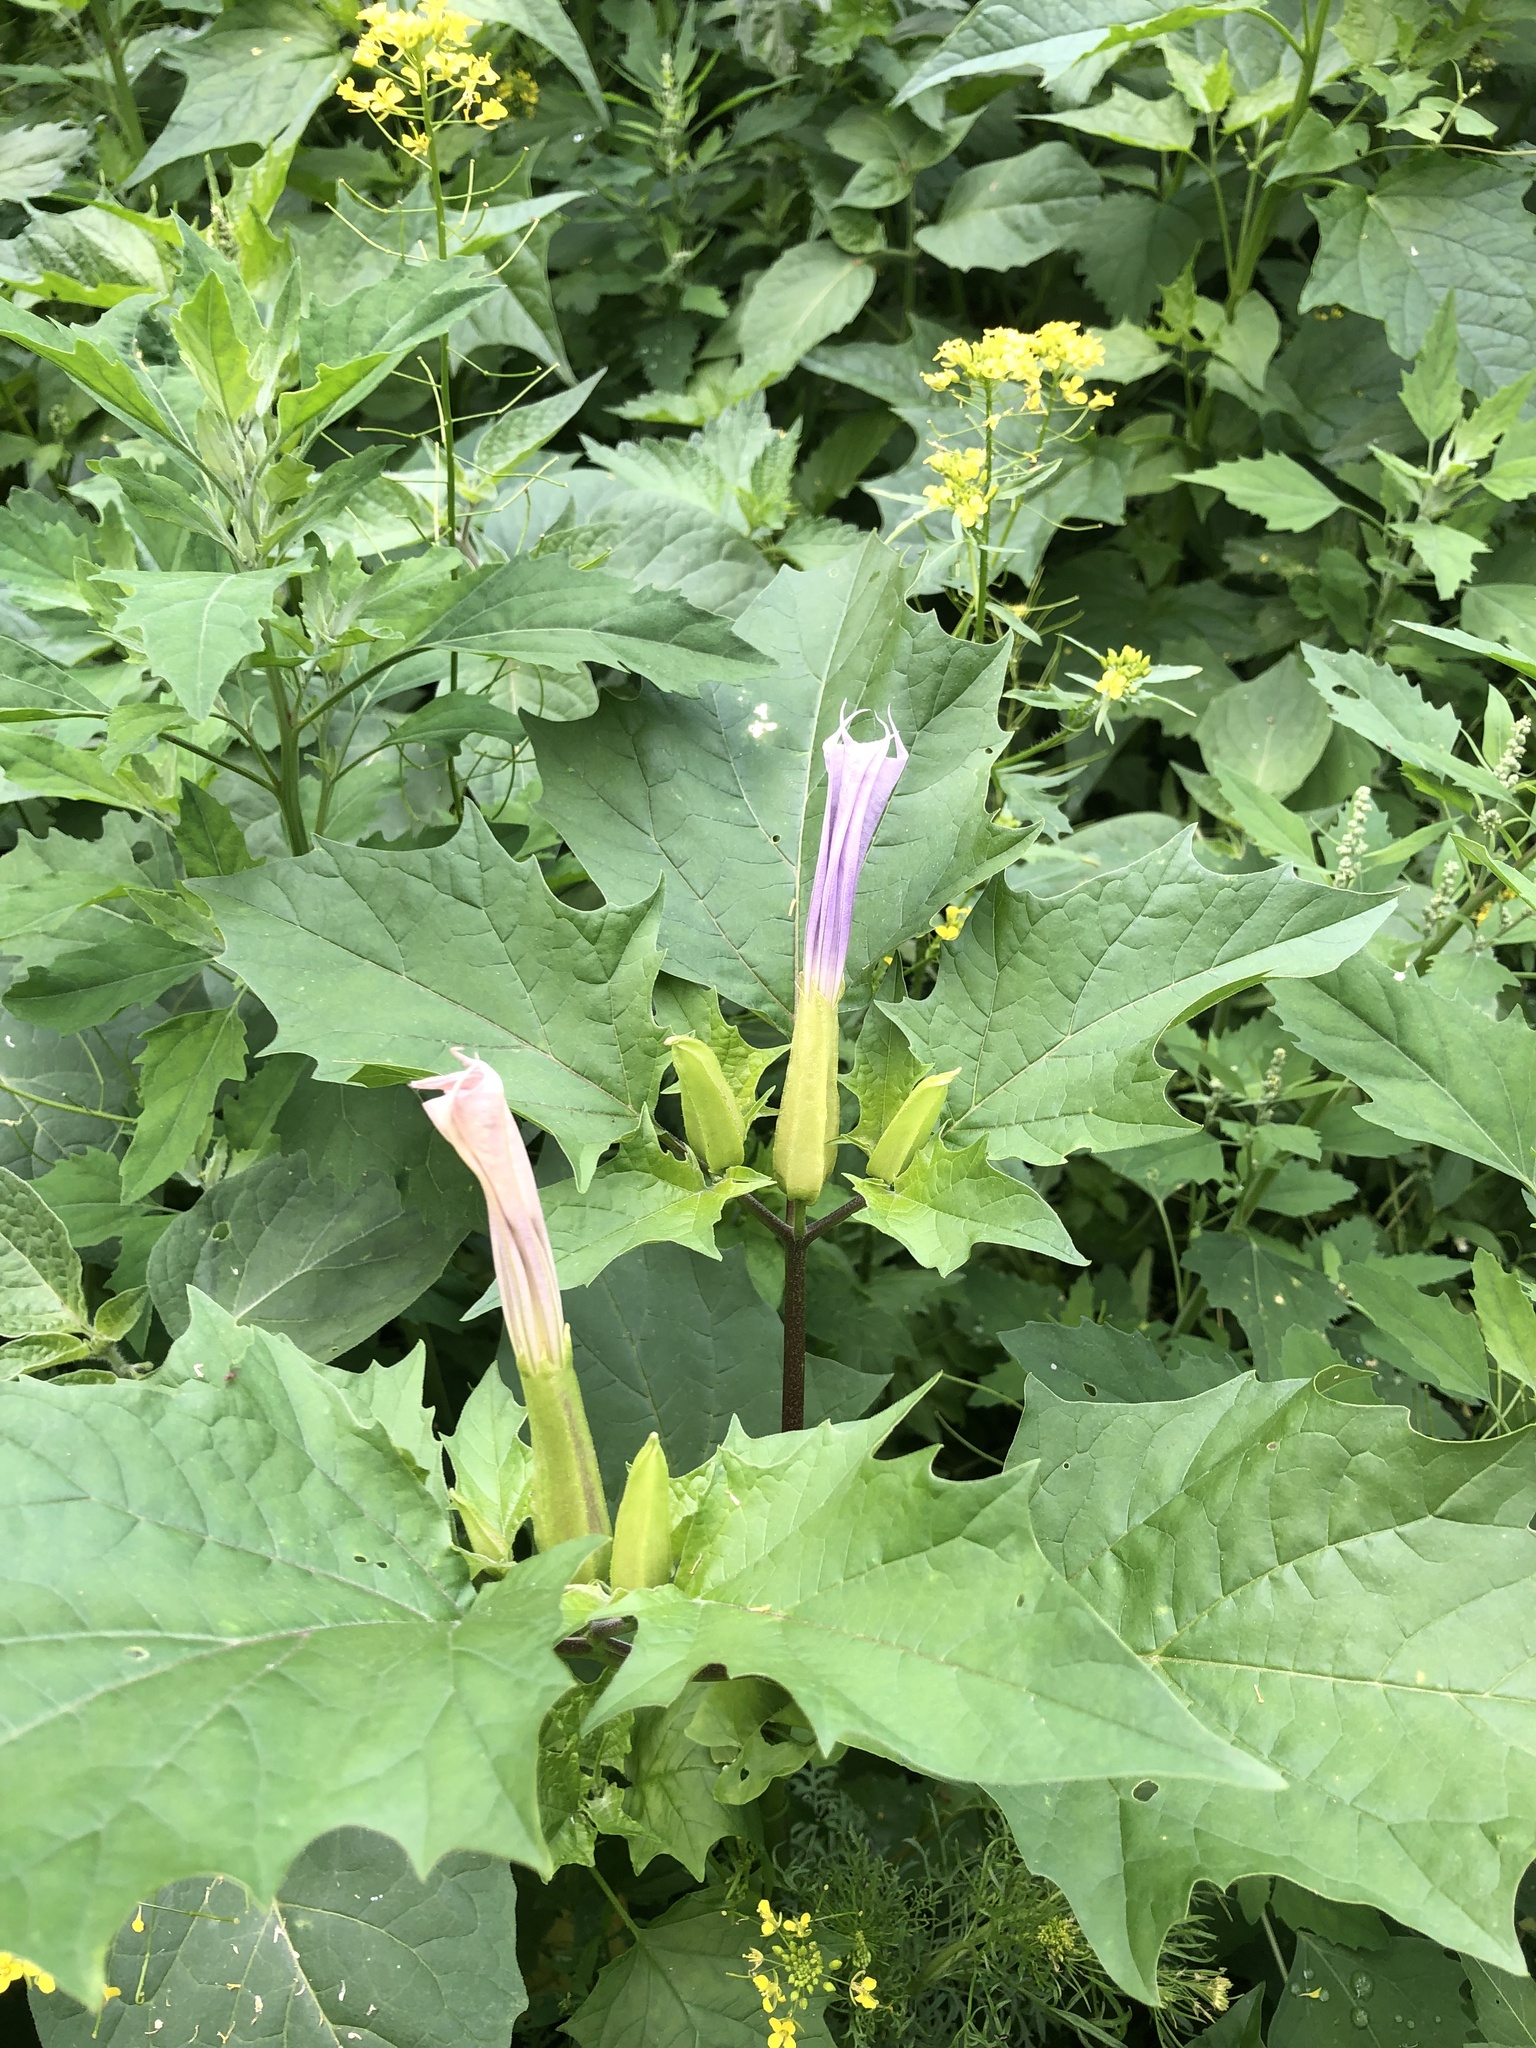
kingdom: Plantae
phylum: Tracheophyta
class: Magnoliopsida
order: Solanales
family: Solanaceae
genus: Datura
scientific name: Datura stramonium
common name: Thorn-apple
